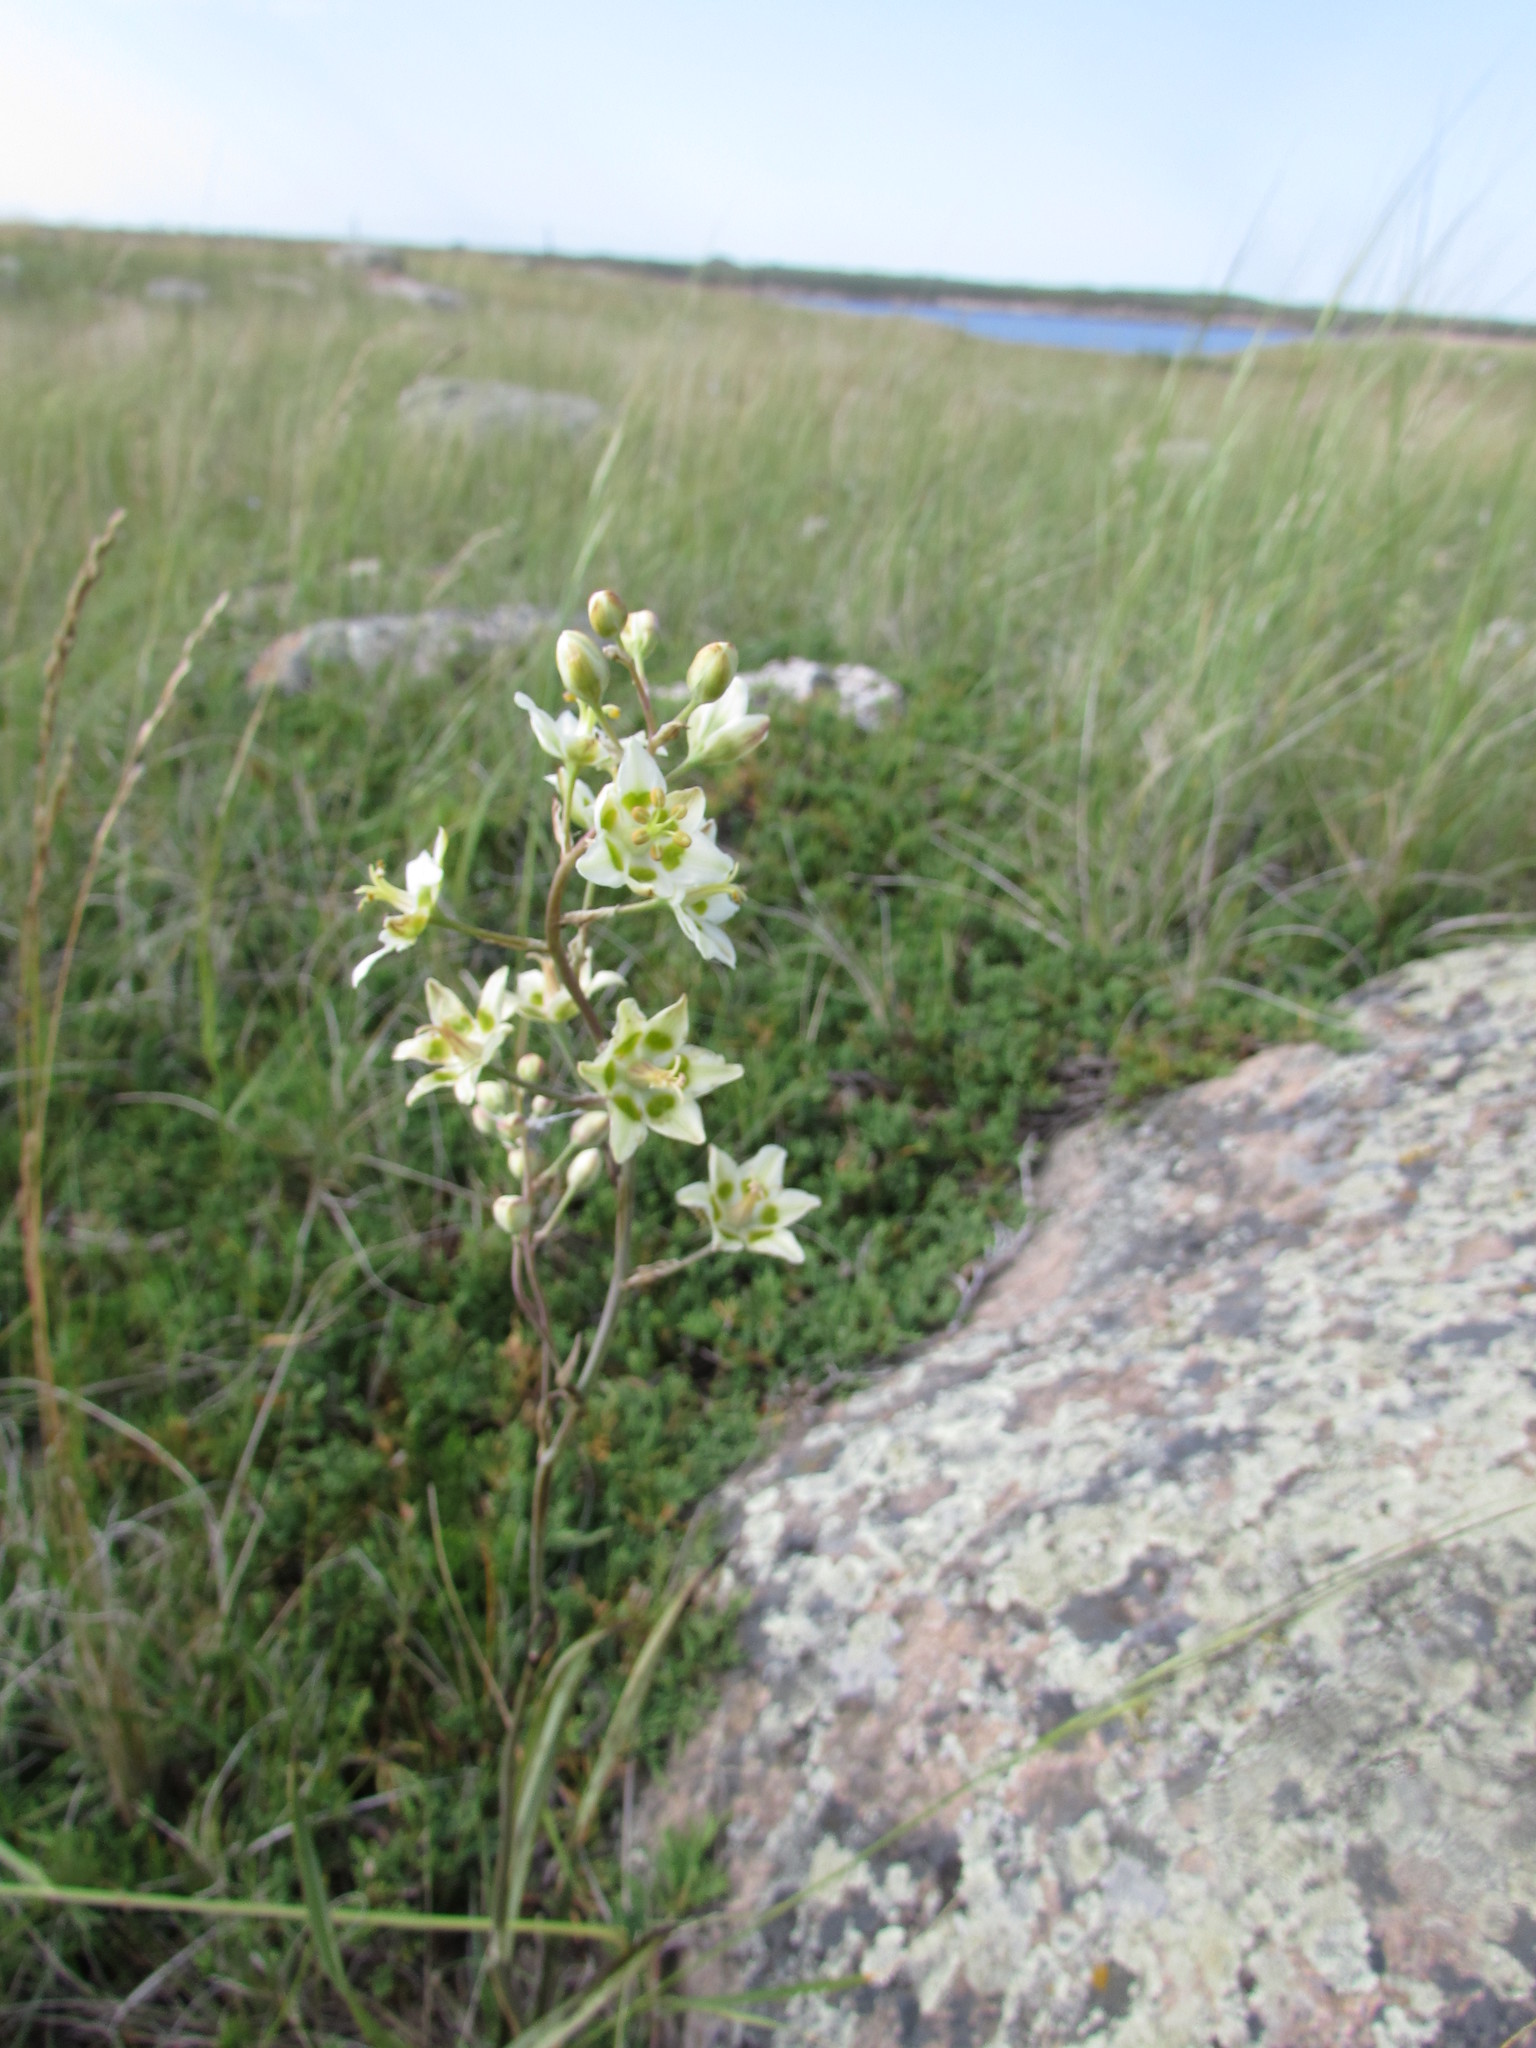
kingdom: Plantae
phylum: Tracheophyta
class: Liliopsida
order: Liliales
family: Melanthiaceae
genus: Anticlea
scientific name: Anticlea elegans
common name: Mountain death camas
